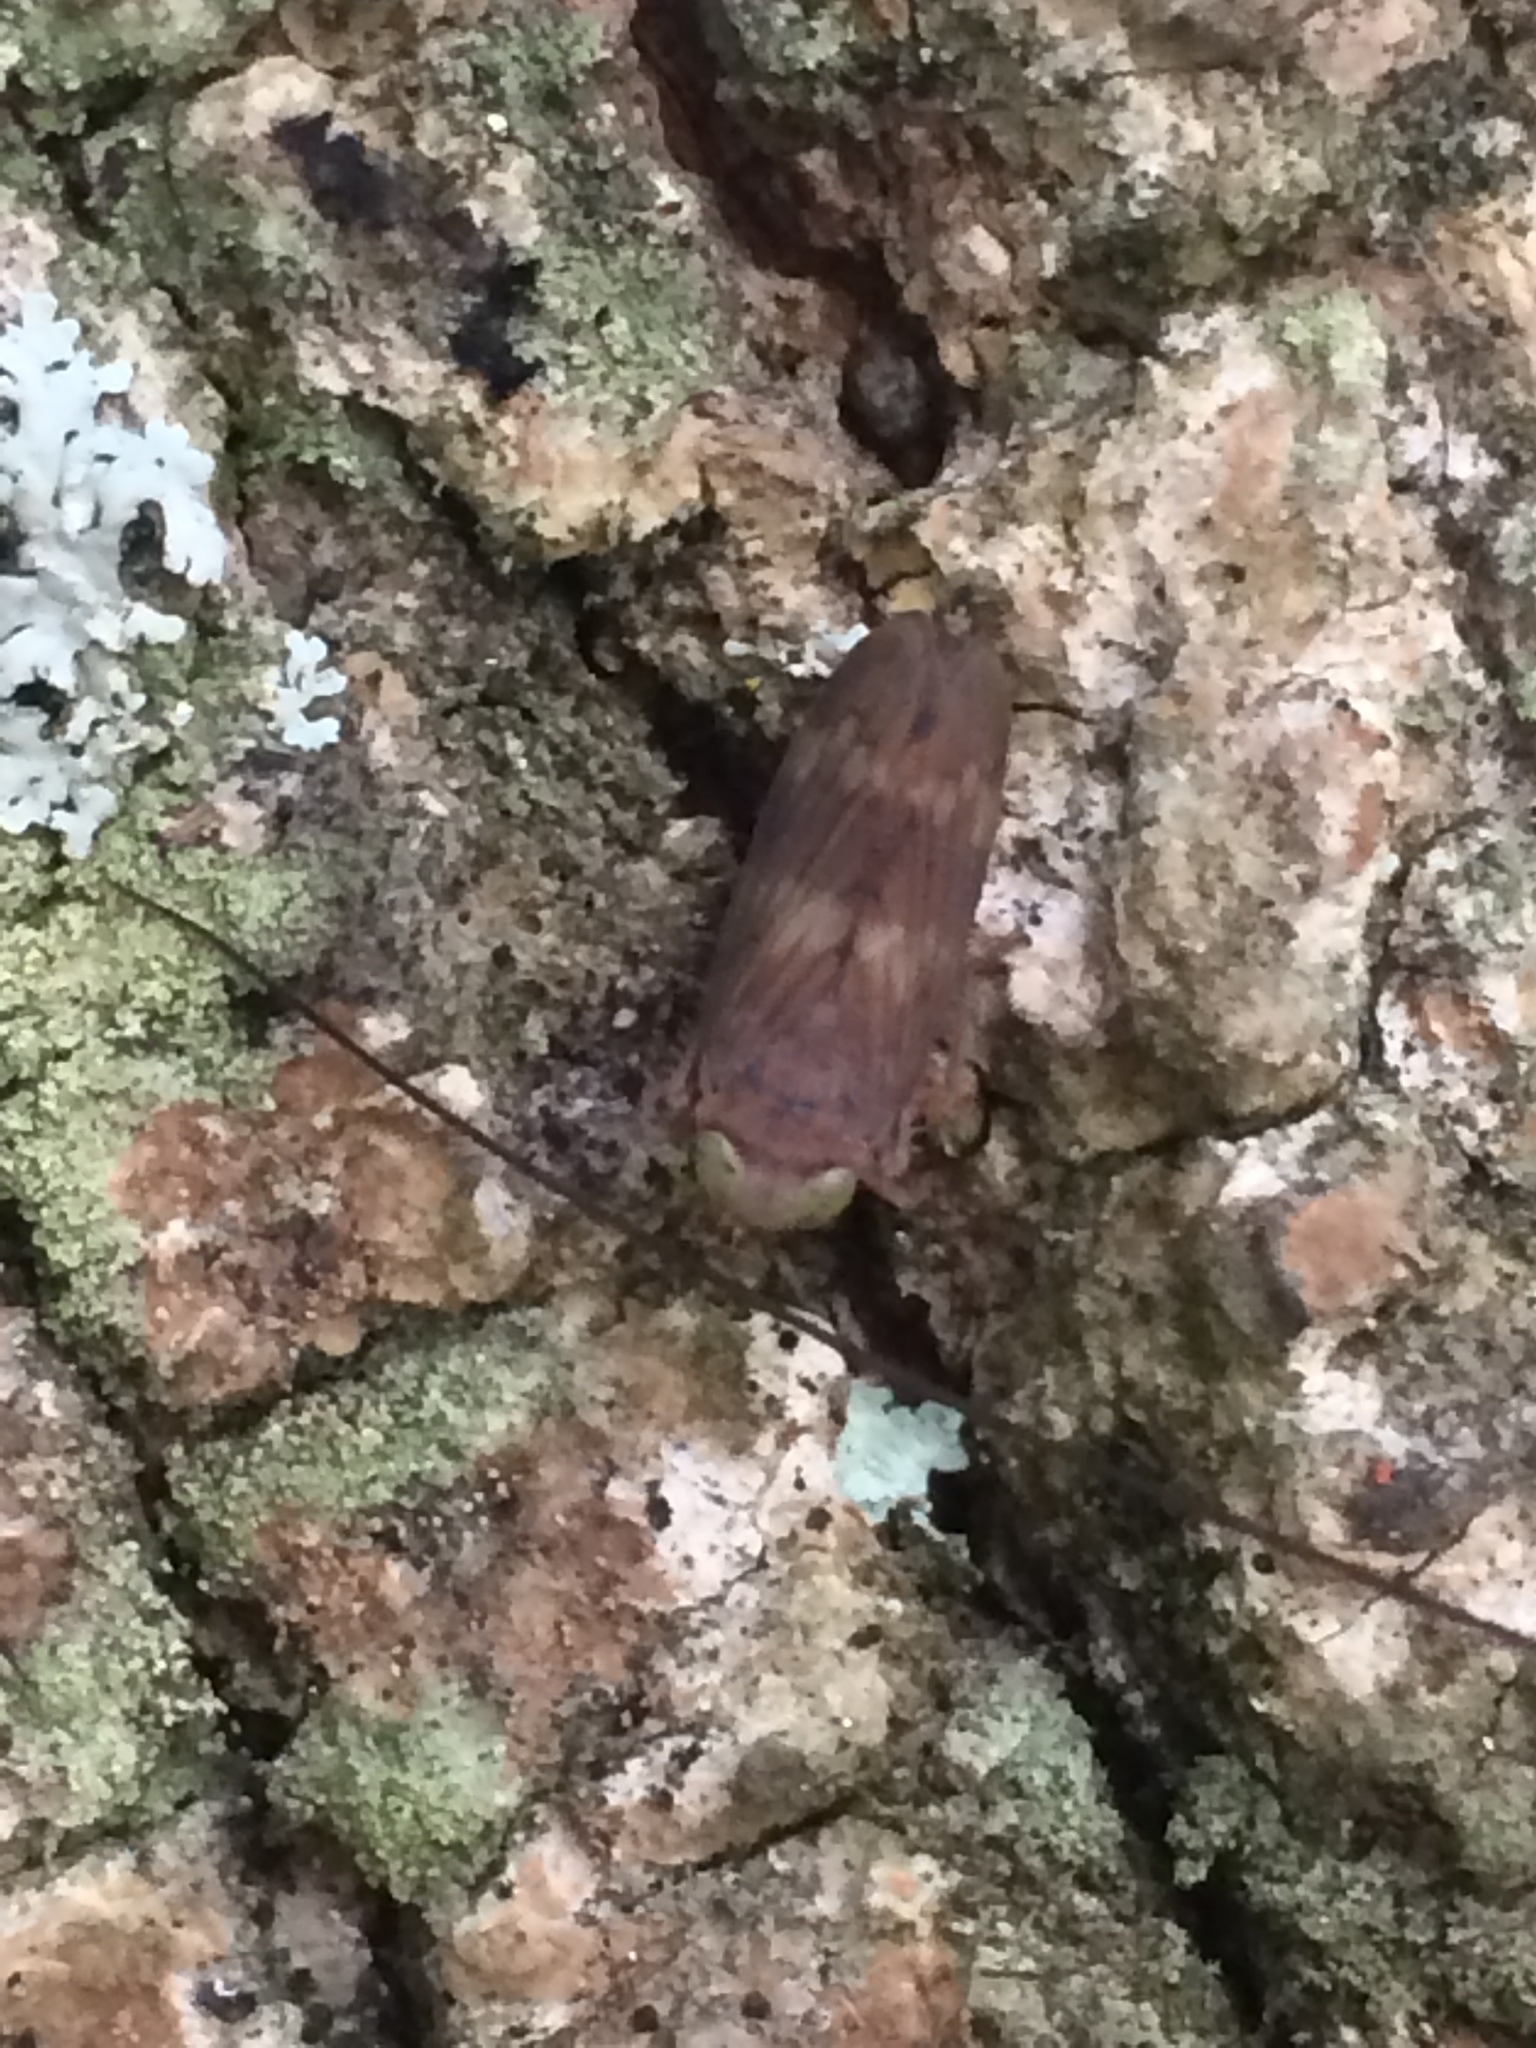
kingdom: Animalia
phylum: Arthropoda
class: Insecta
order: Hemiptera
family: Cicadellidae
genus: Jikradia
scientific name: Jikradia olitoria
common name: Coppery leafhopper
